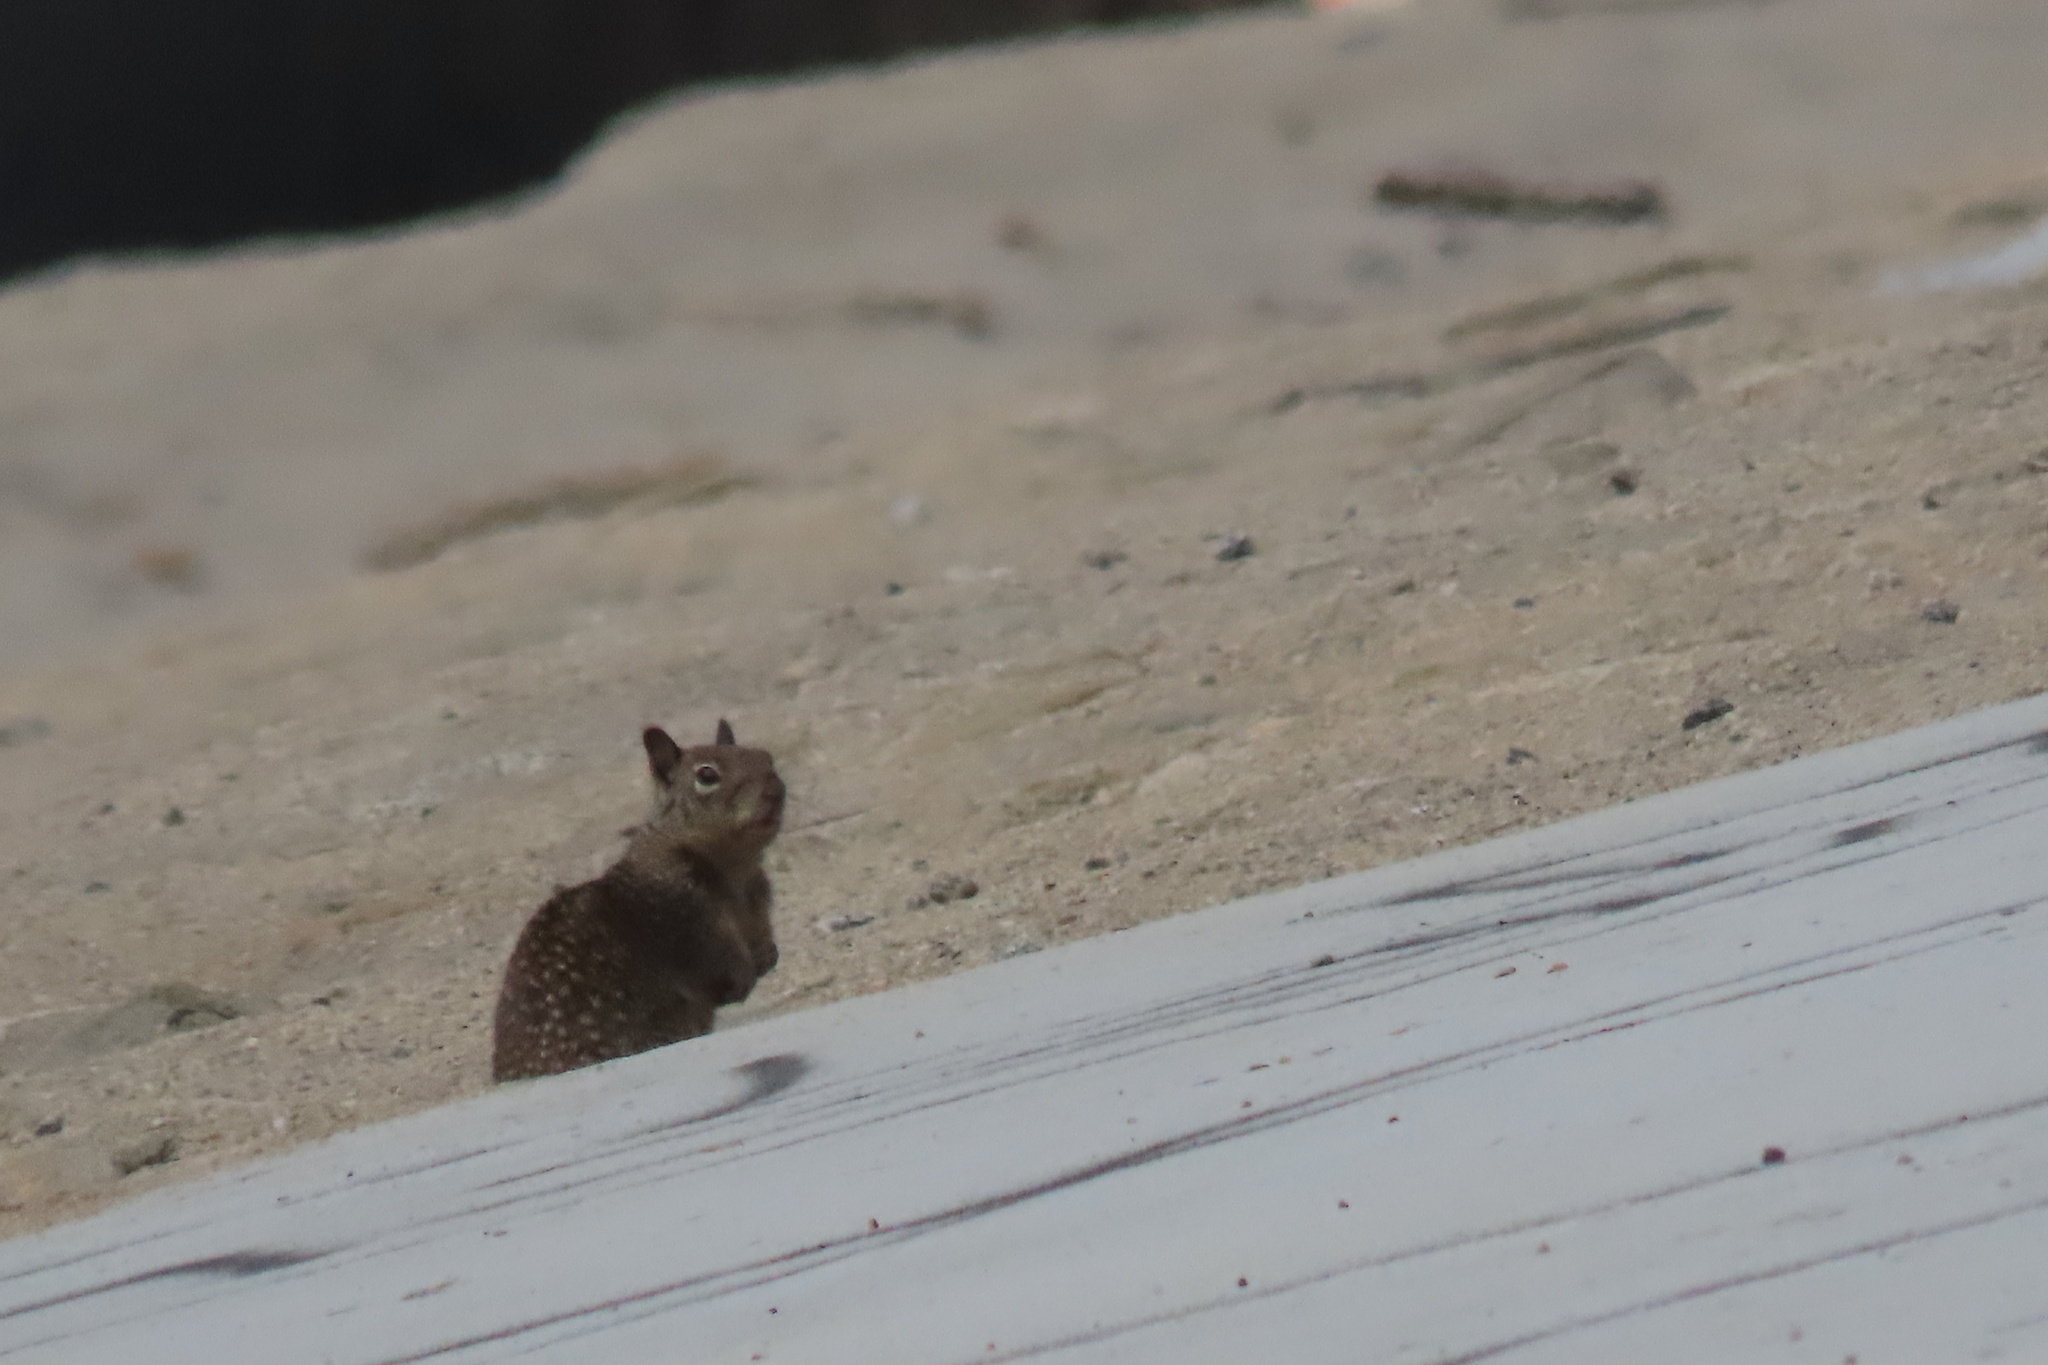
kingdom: Animalia
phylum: Chordata
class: Mammalia
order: Rodentia
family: Sciuridae
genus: Otospermophilus
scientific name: Otospermophilus beecheyi
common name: California ground squirrel
